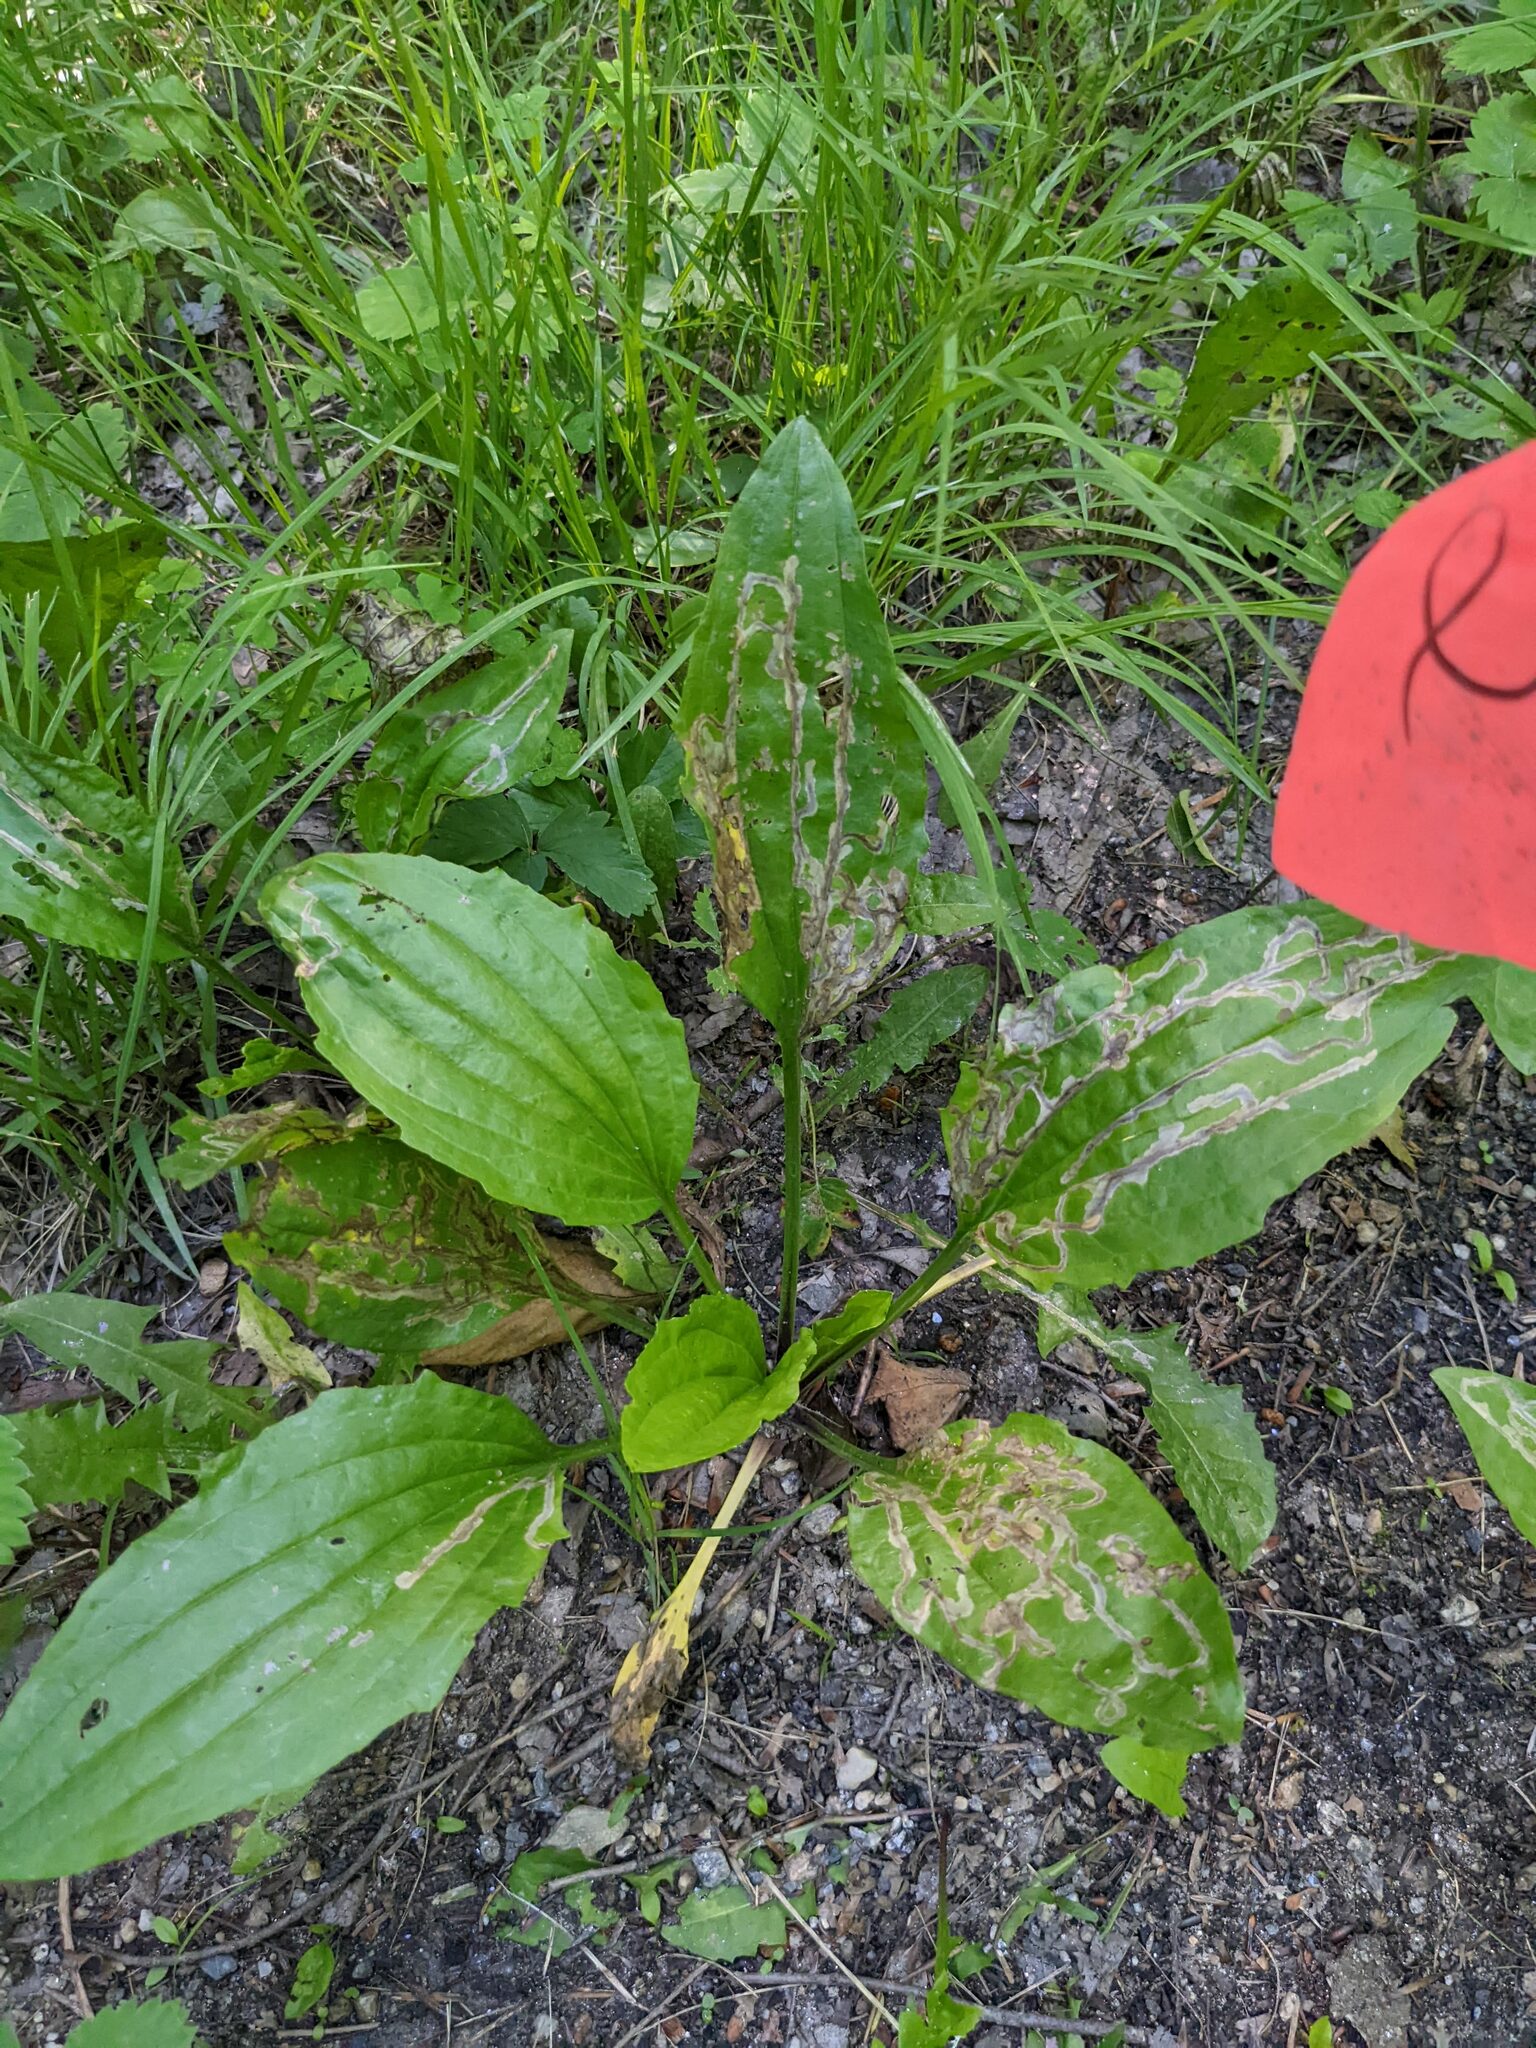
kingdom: Plantae
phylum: Tracheophyta
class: Magnoliopsida
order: Lamiales
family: Plantaginaceae
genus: Plantago
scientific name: Plantago rugelii
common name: American plantain
